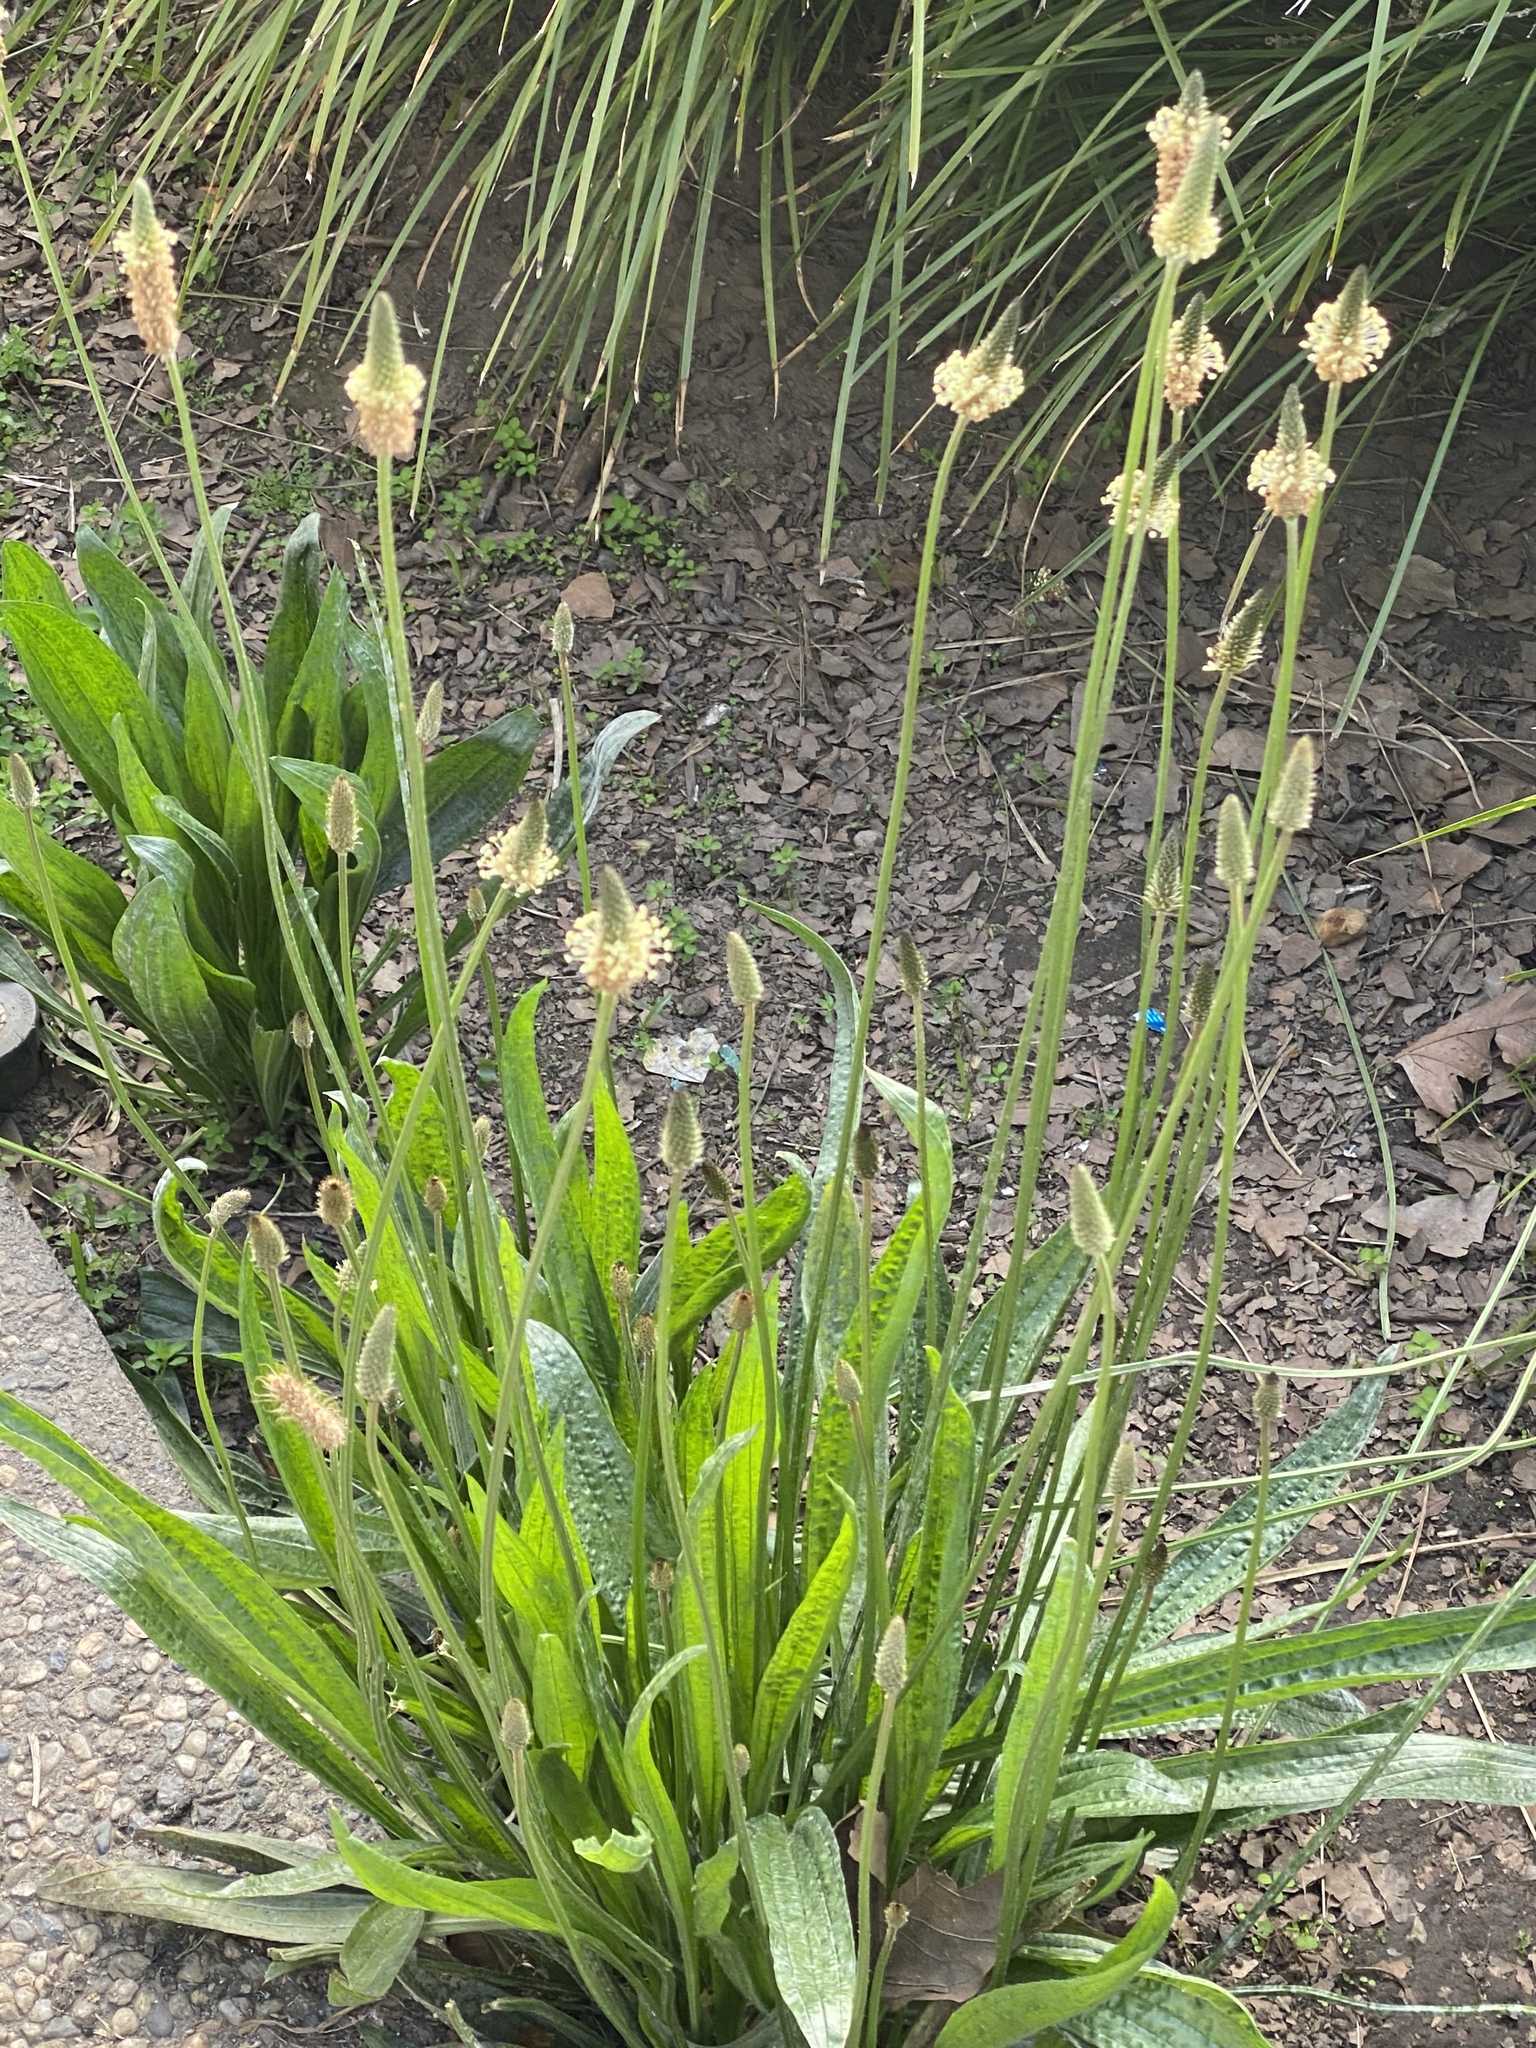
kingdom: Plantae
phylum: Tracheophyta
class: Magnoliopsida
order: Lamiales
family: Plantaginaceae
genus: Plantago
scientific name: Plantago lanceolata
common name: Ribwort plantain
